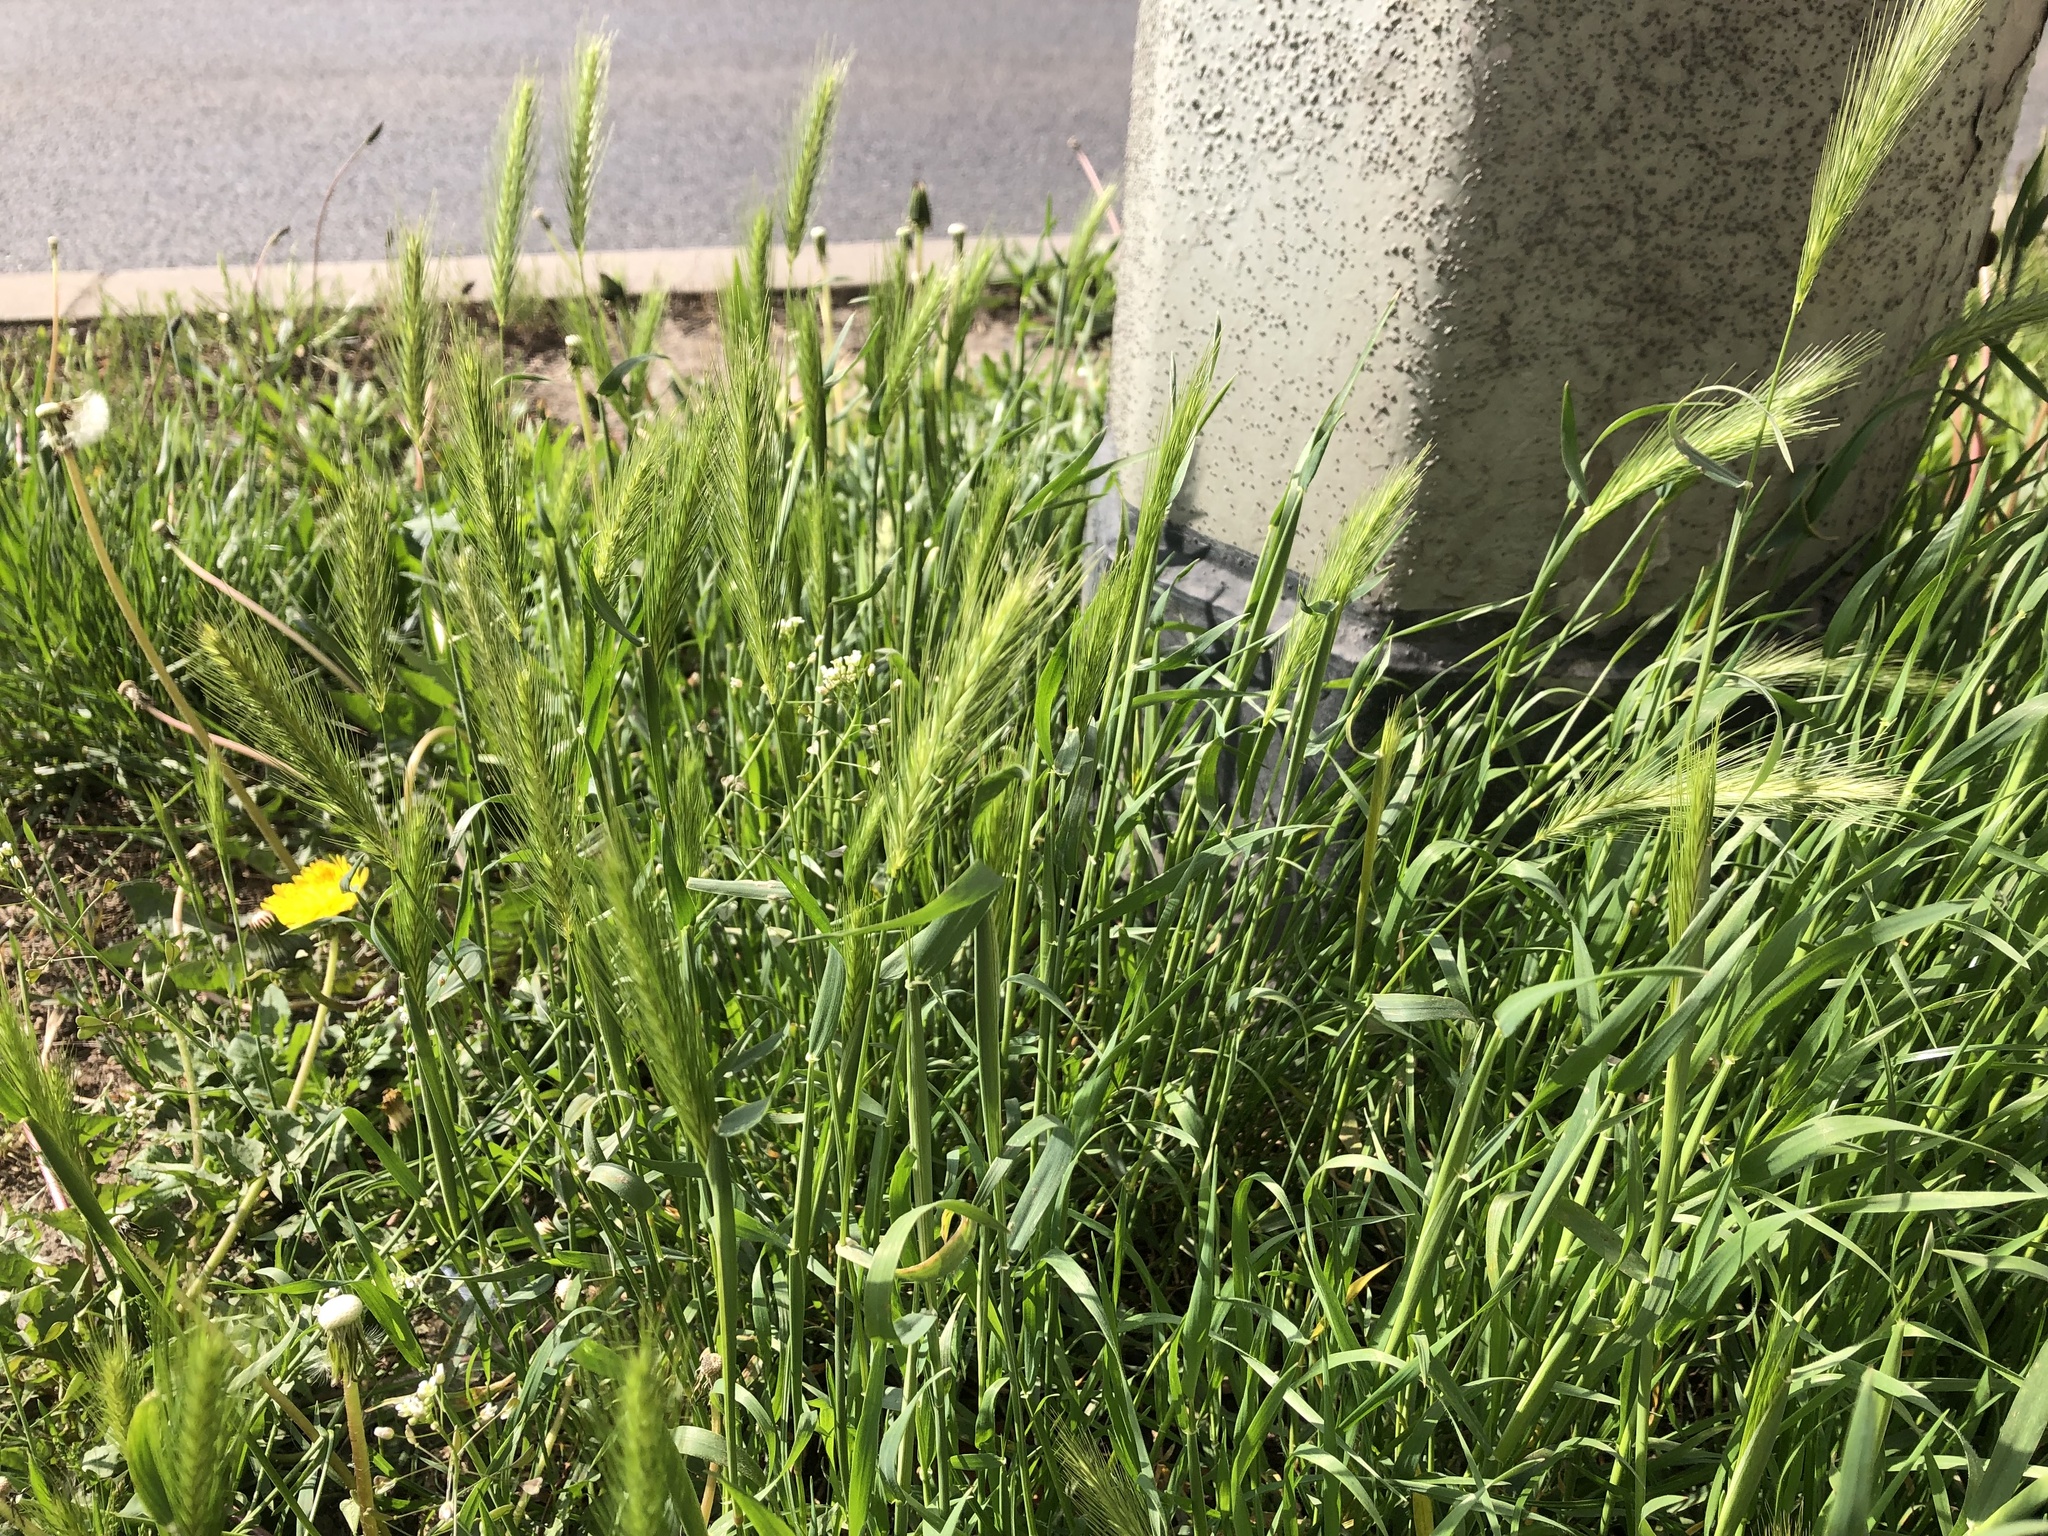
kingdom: Plantae
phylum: Tracheophyta
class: Liliopsida
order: Poales
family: Poaceae
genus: Hordeum
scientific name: Hordeum murinum
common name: Wall barley
